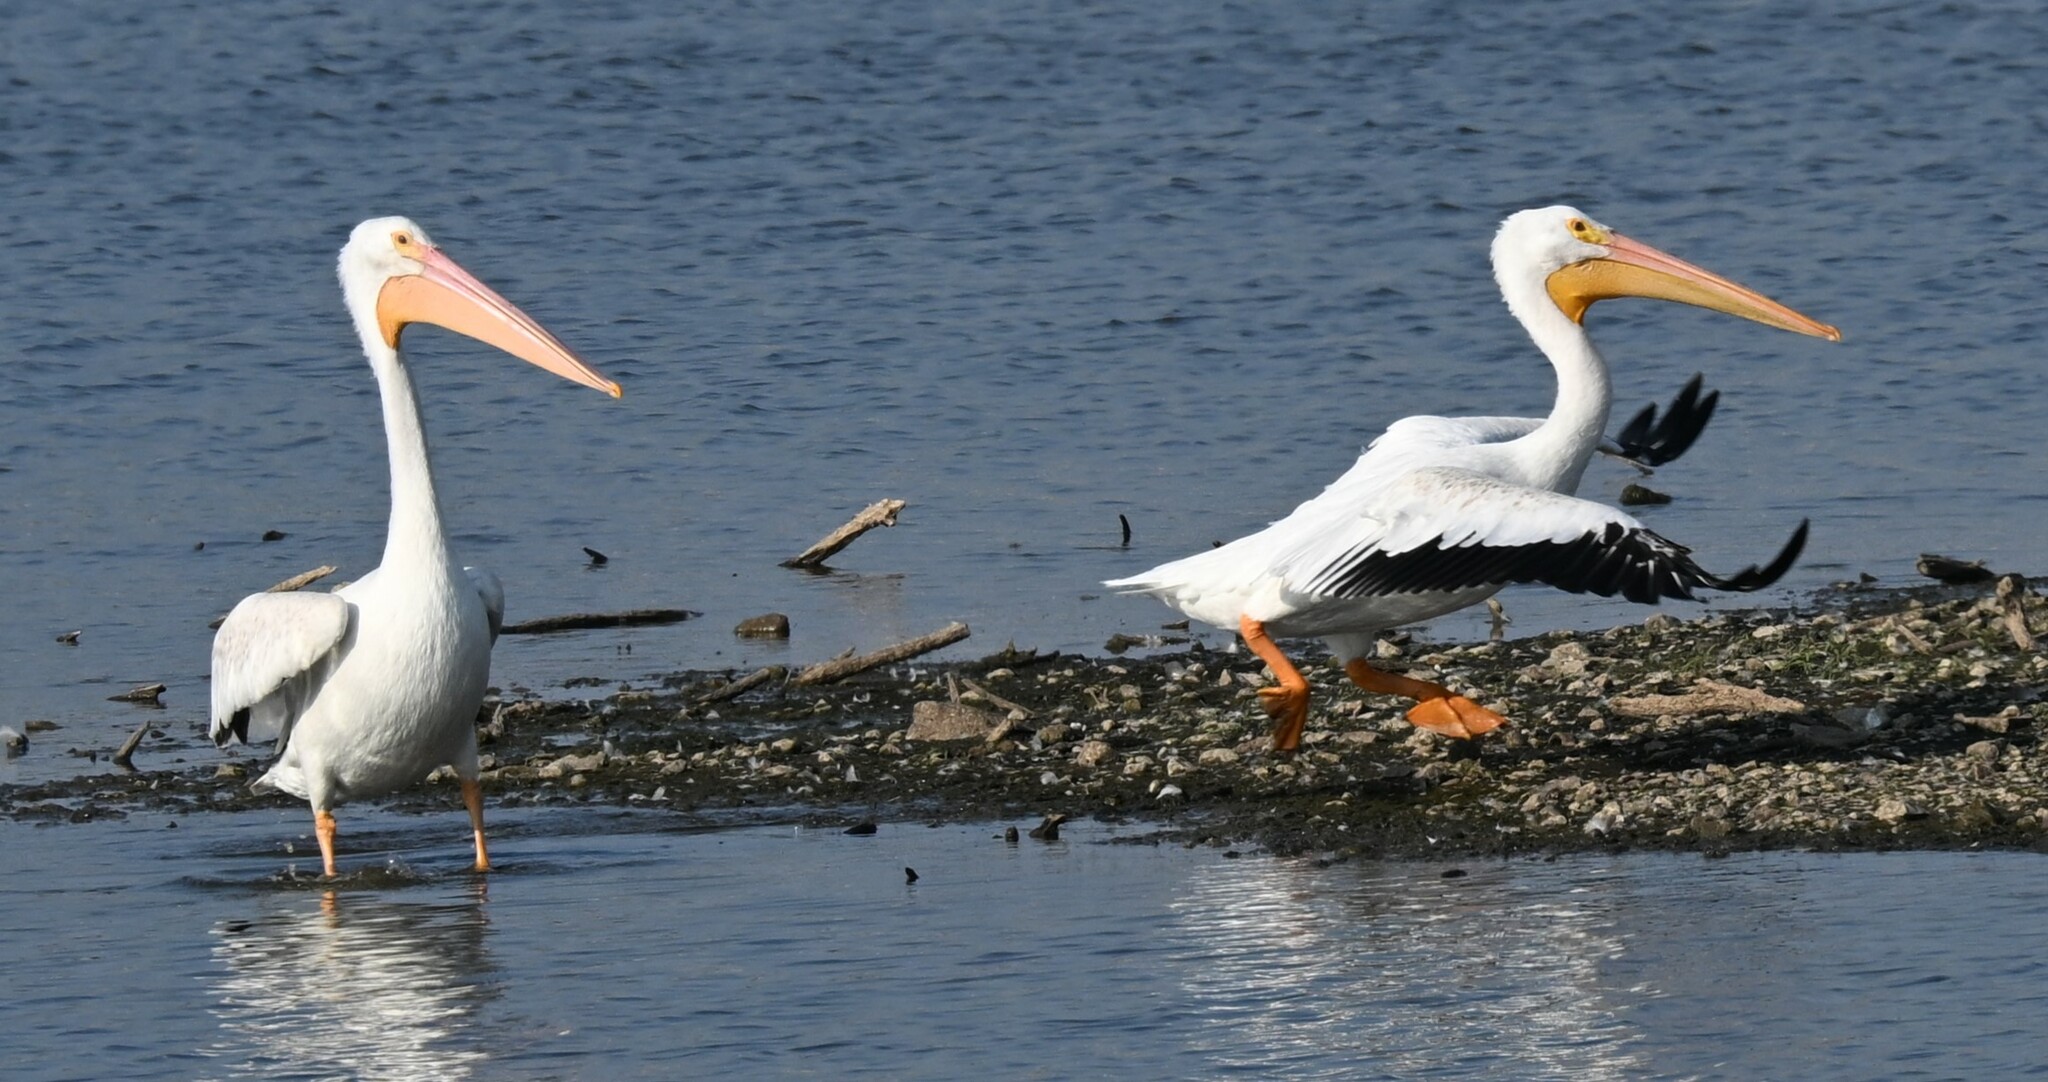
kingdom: Animalia
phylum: Chordata
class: Aves
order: Pelecaniformes
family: Pelecanidae
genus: Pelecanus
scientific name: Pelecanus erythrorhynchos
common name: American white pelican
